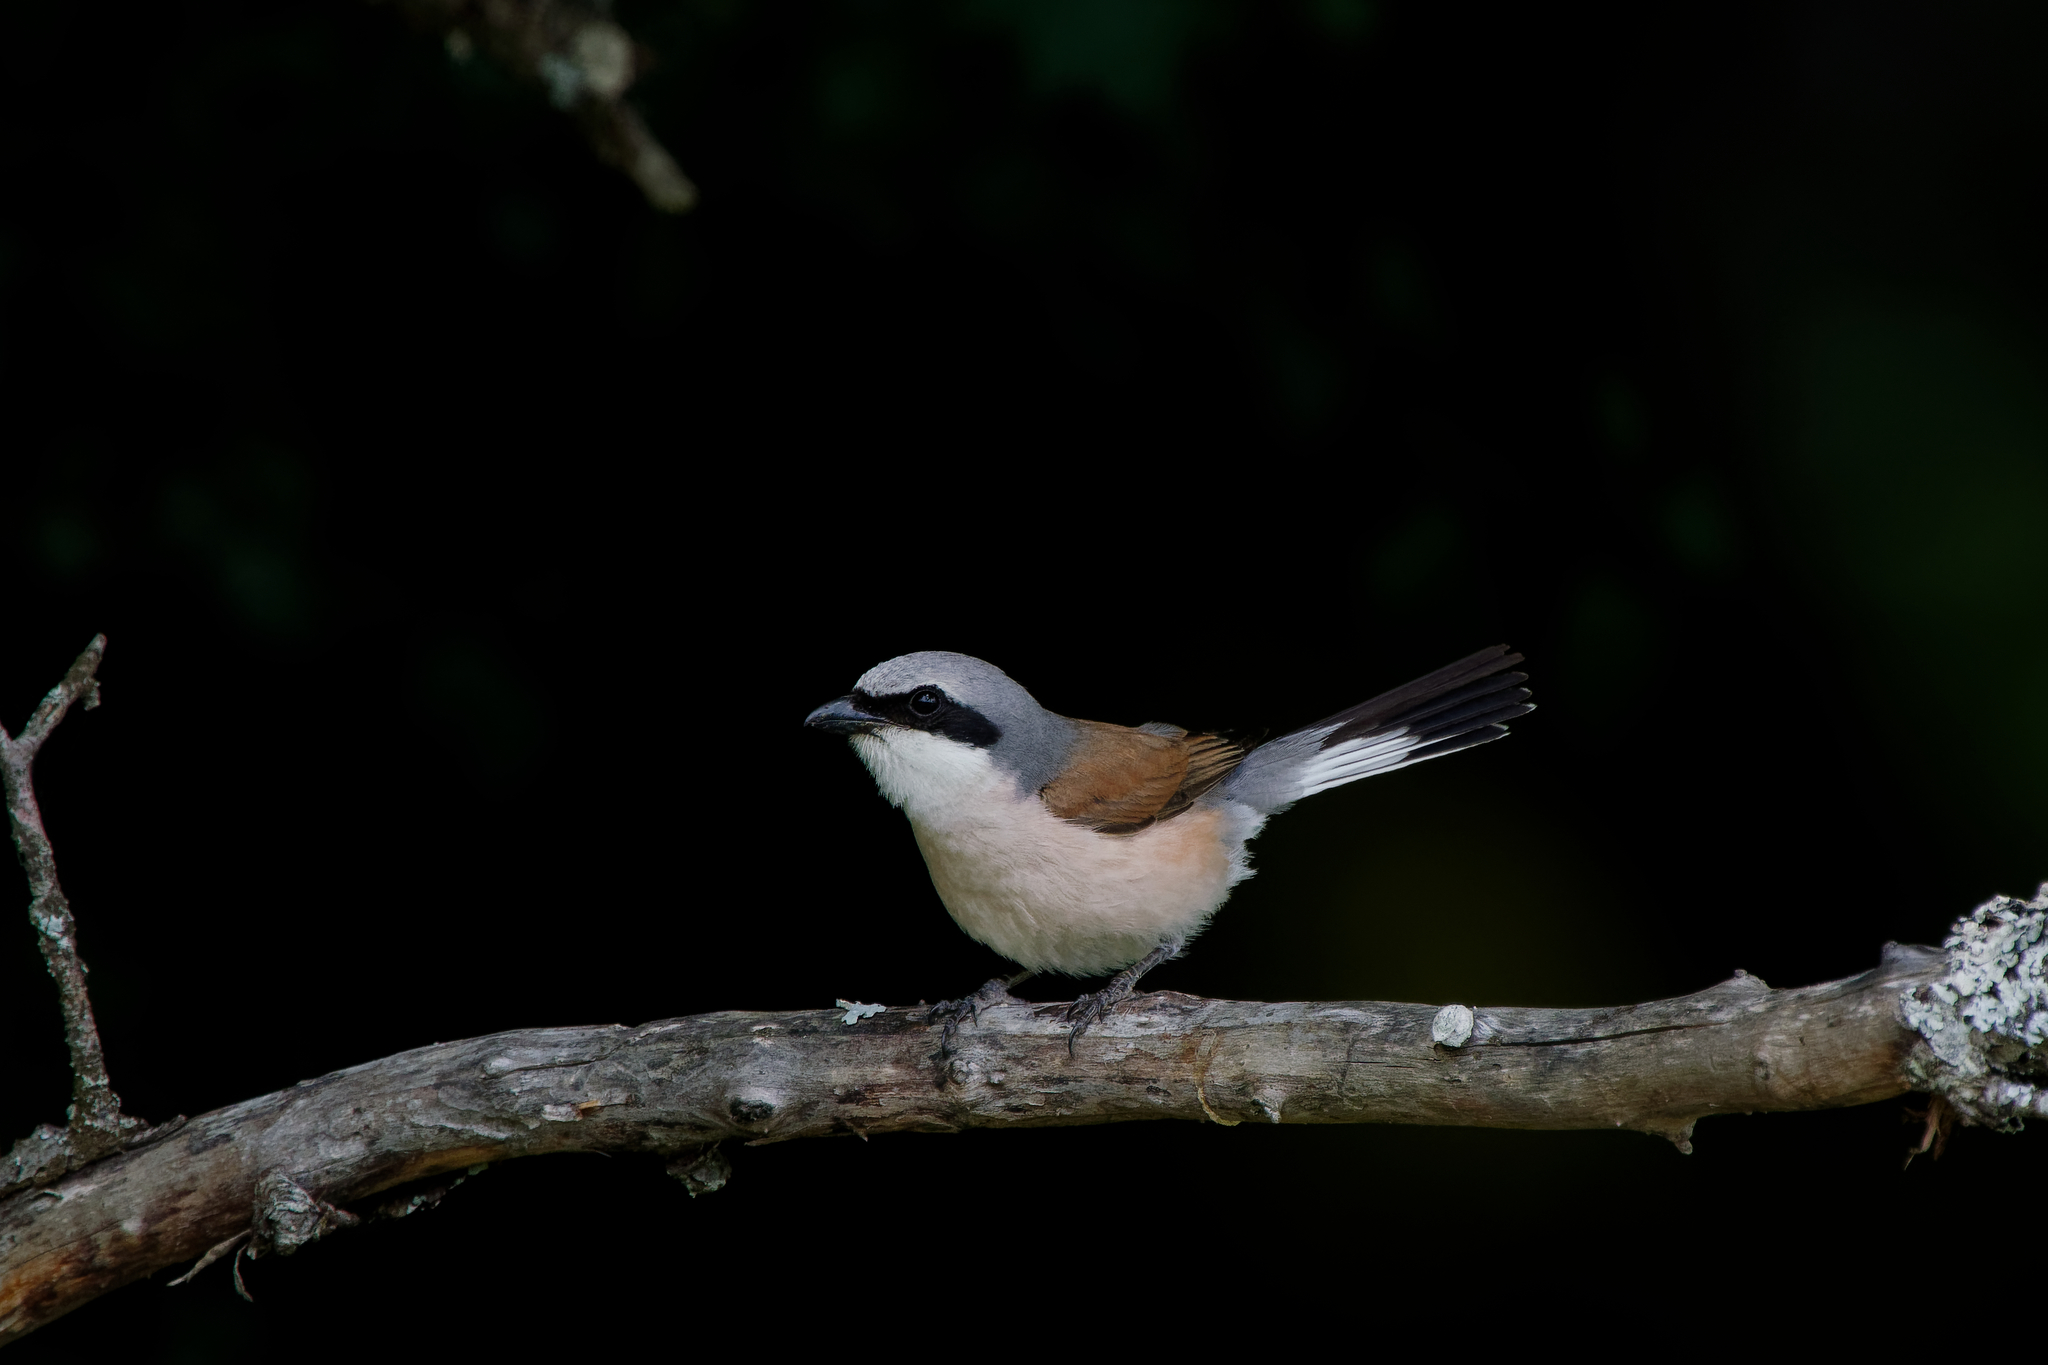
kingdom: Animalia
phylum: Chordata
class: Aves
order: Passeriformes
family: Laniidae
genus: Lanius
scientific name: Lanius collurio
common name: Red-backed shrike
